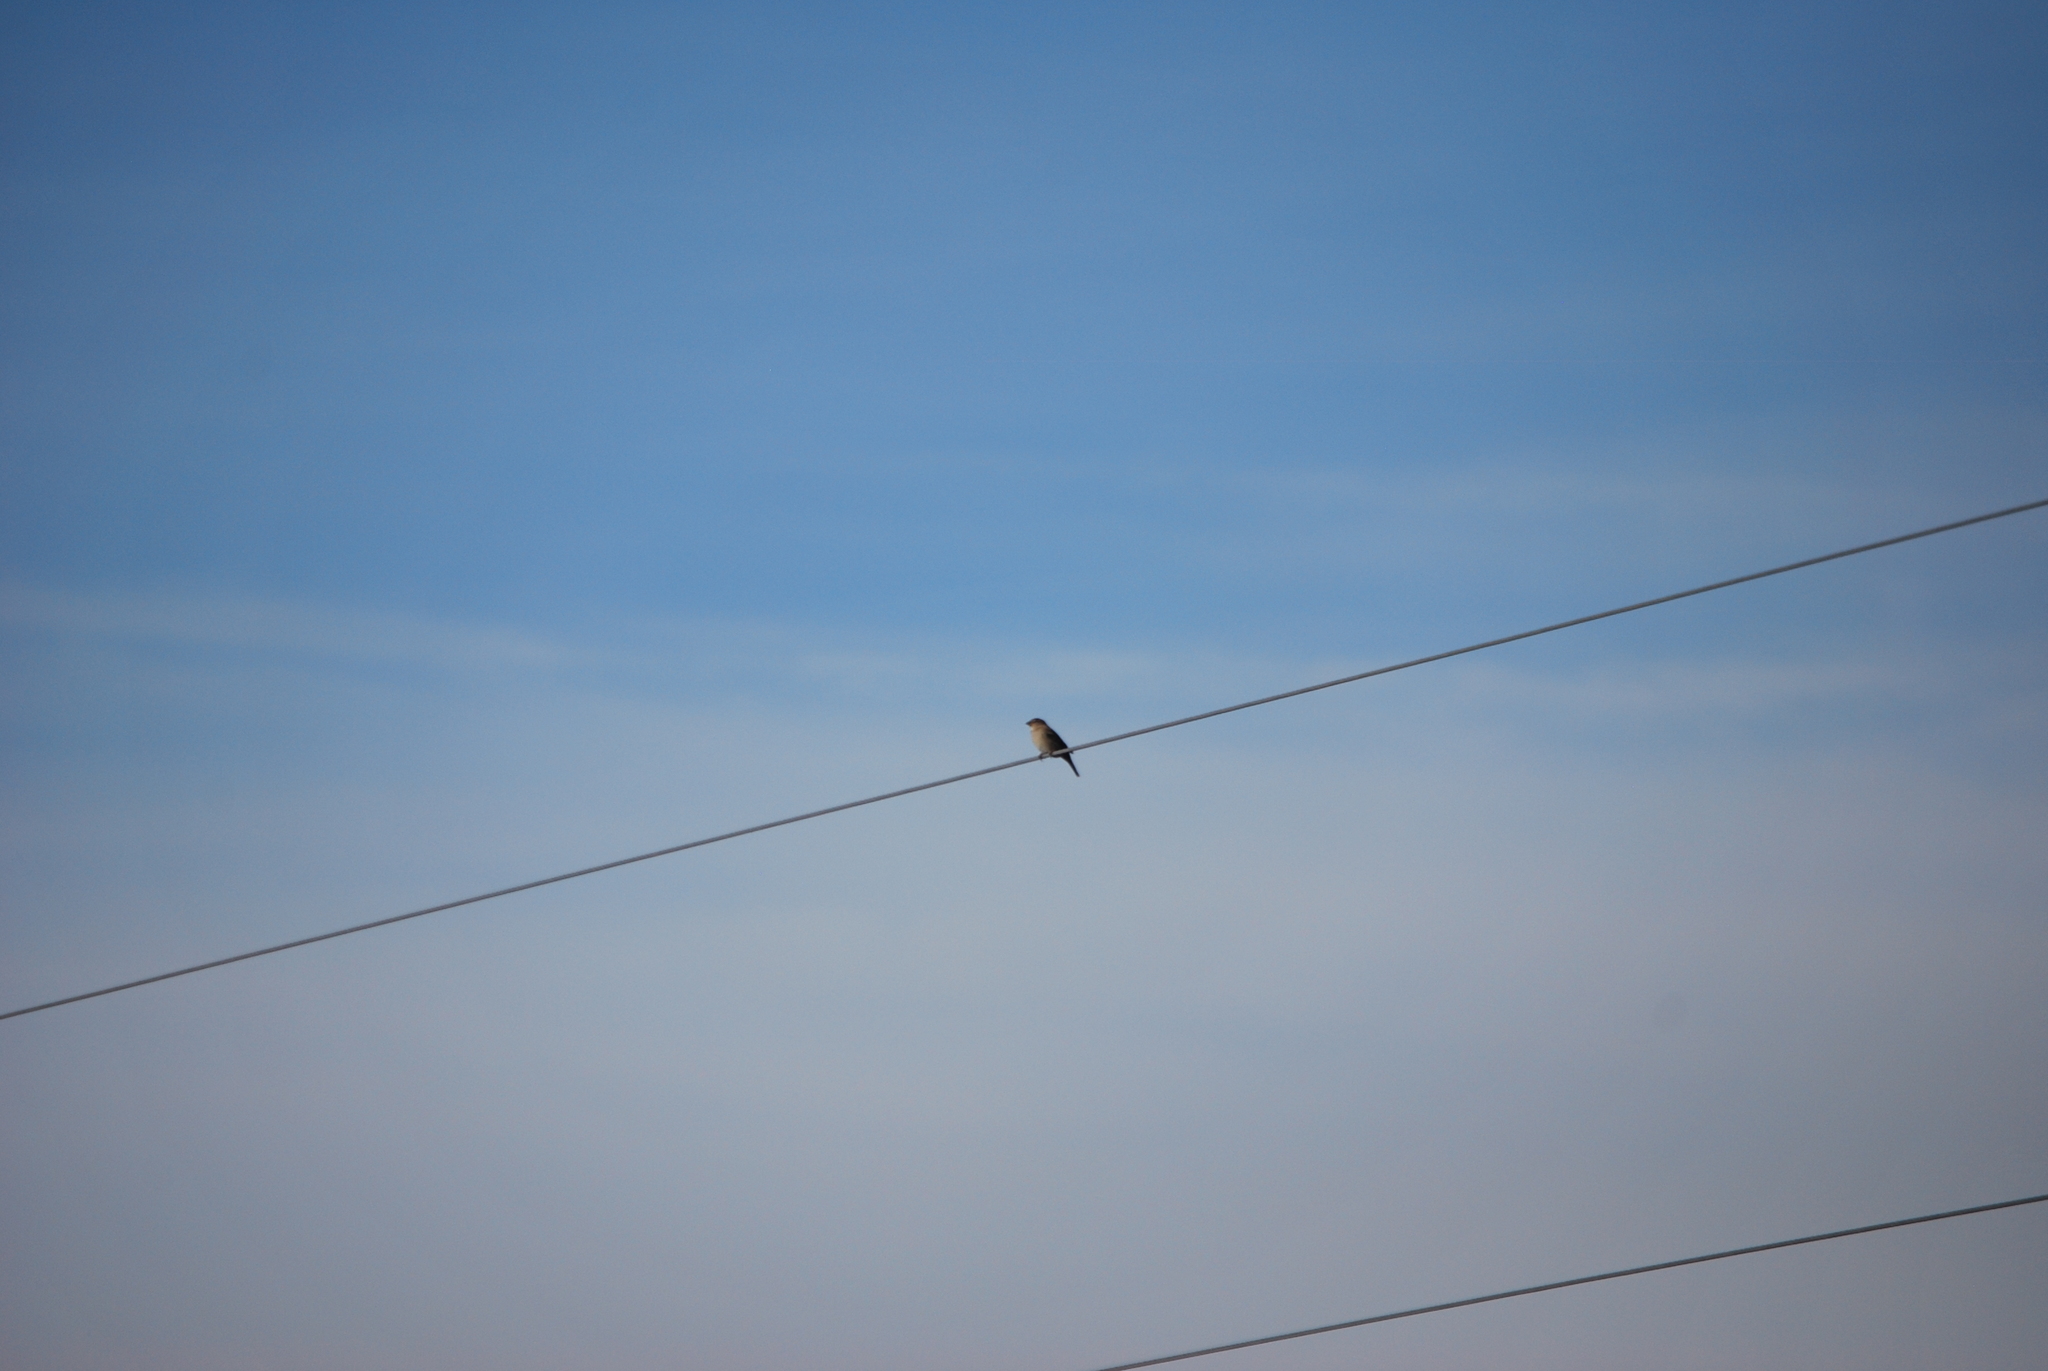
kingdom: Animalia
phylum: Chordata
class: Aves
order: Passeriformes
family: Passeridae
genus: Passer
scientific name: Passer domesticus
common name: House sparrow
